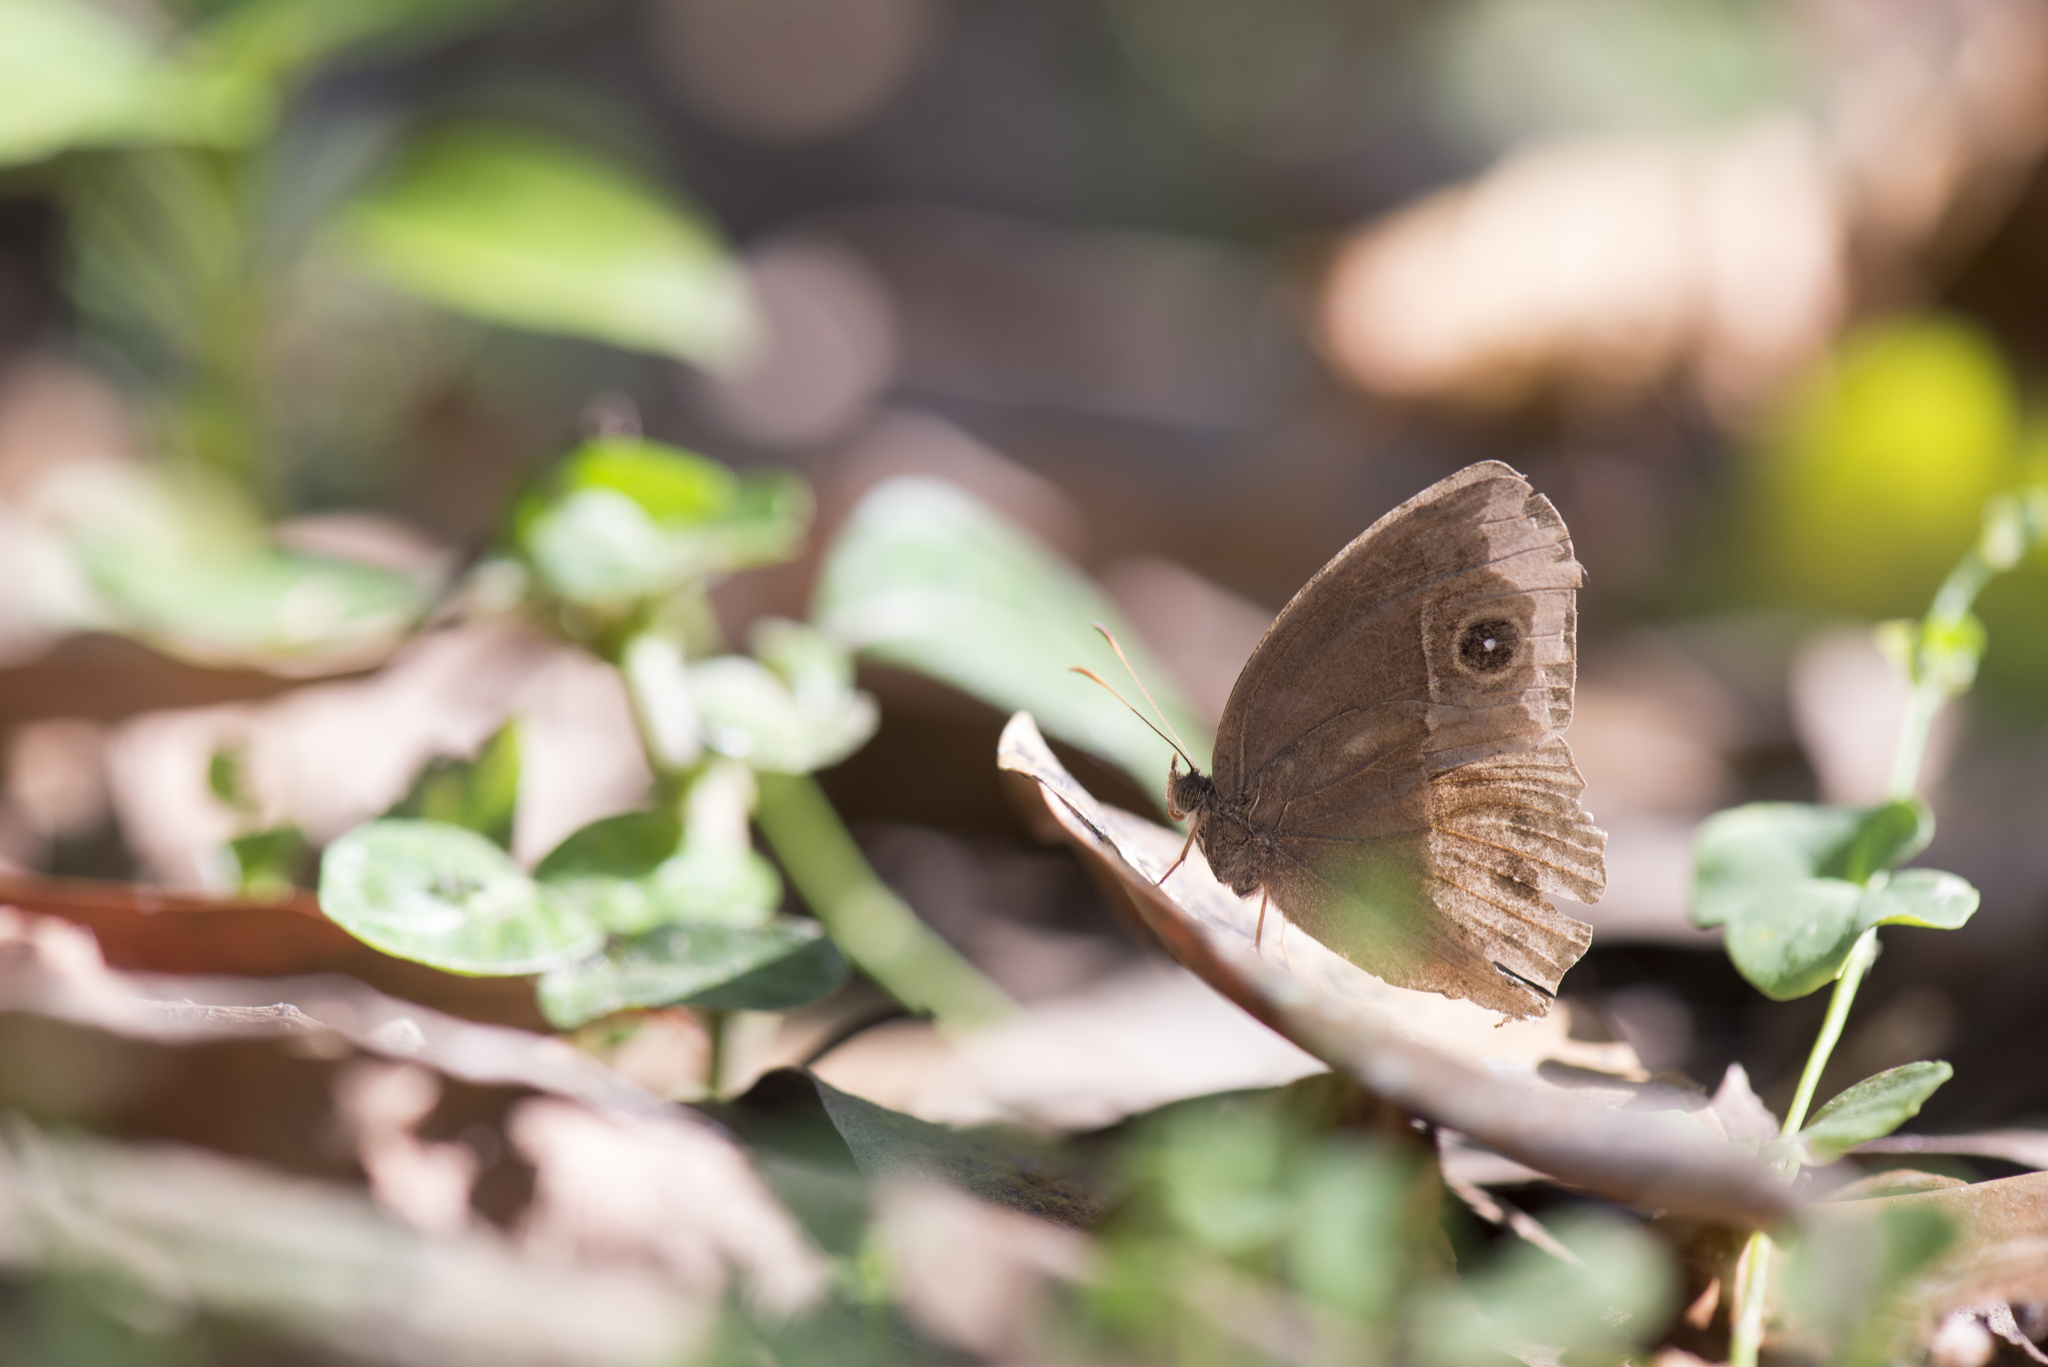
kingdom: Animalia
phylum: Arthropoda
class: Insecta
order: Lepidoptera
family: Nymphalidae
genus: Mycalesis
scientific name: Mycalesis horsfieldii
